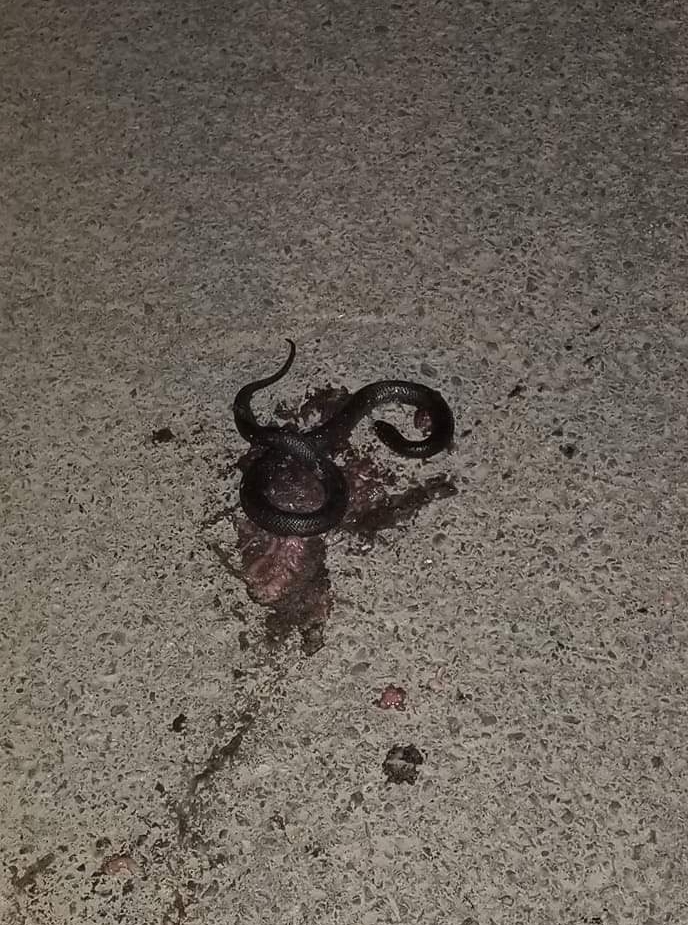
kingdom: Animalia
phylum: Chordata
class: Squamata
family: Elapidae
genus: Walterinnesia
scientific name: Walterinnesia morgani
